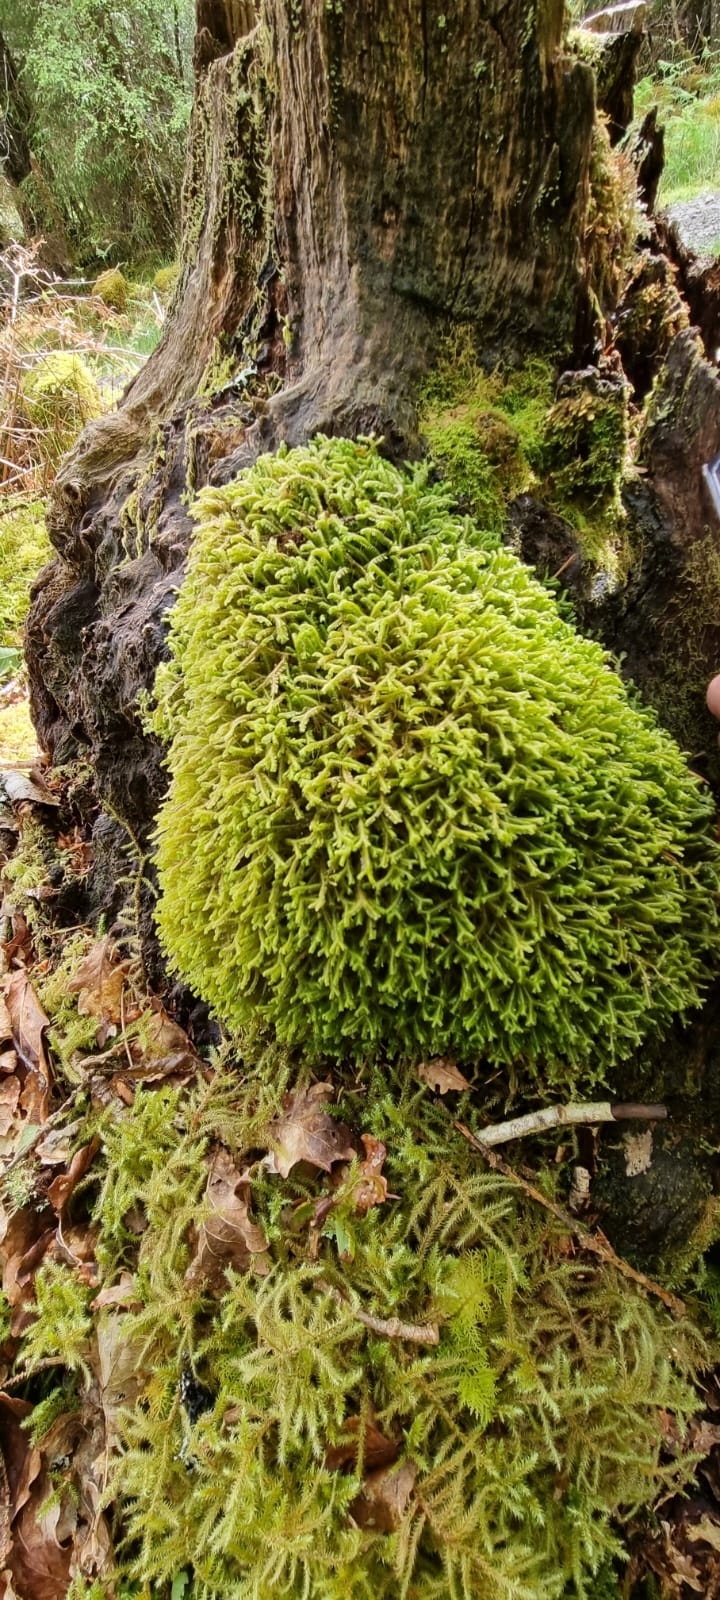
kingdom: Plantae
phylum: Marchantiophyta
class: Jungermanniopsida
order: Jungermanniales
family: Lepidoziaceae
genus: Bazzania
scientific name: Bazzania trilobata
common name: Three-lobed whipwort
